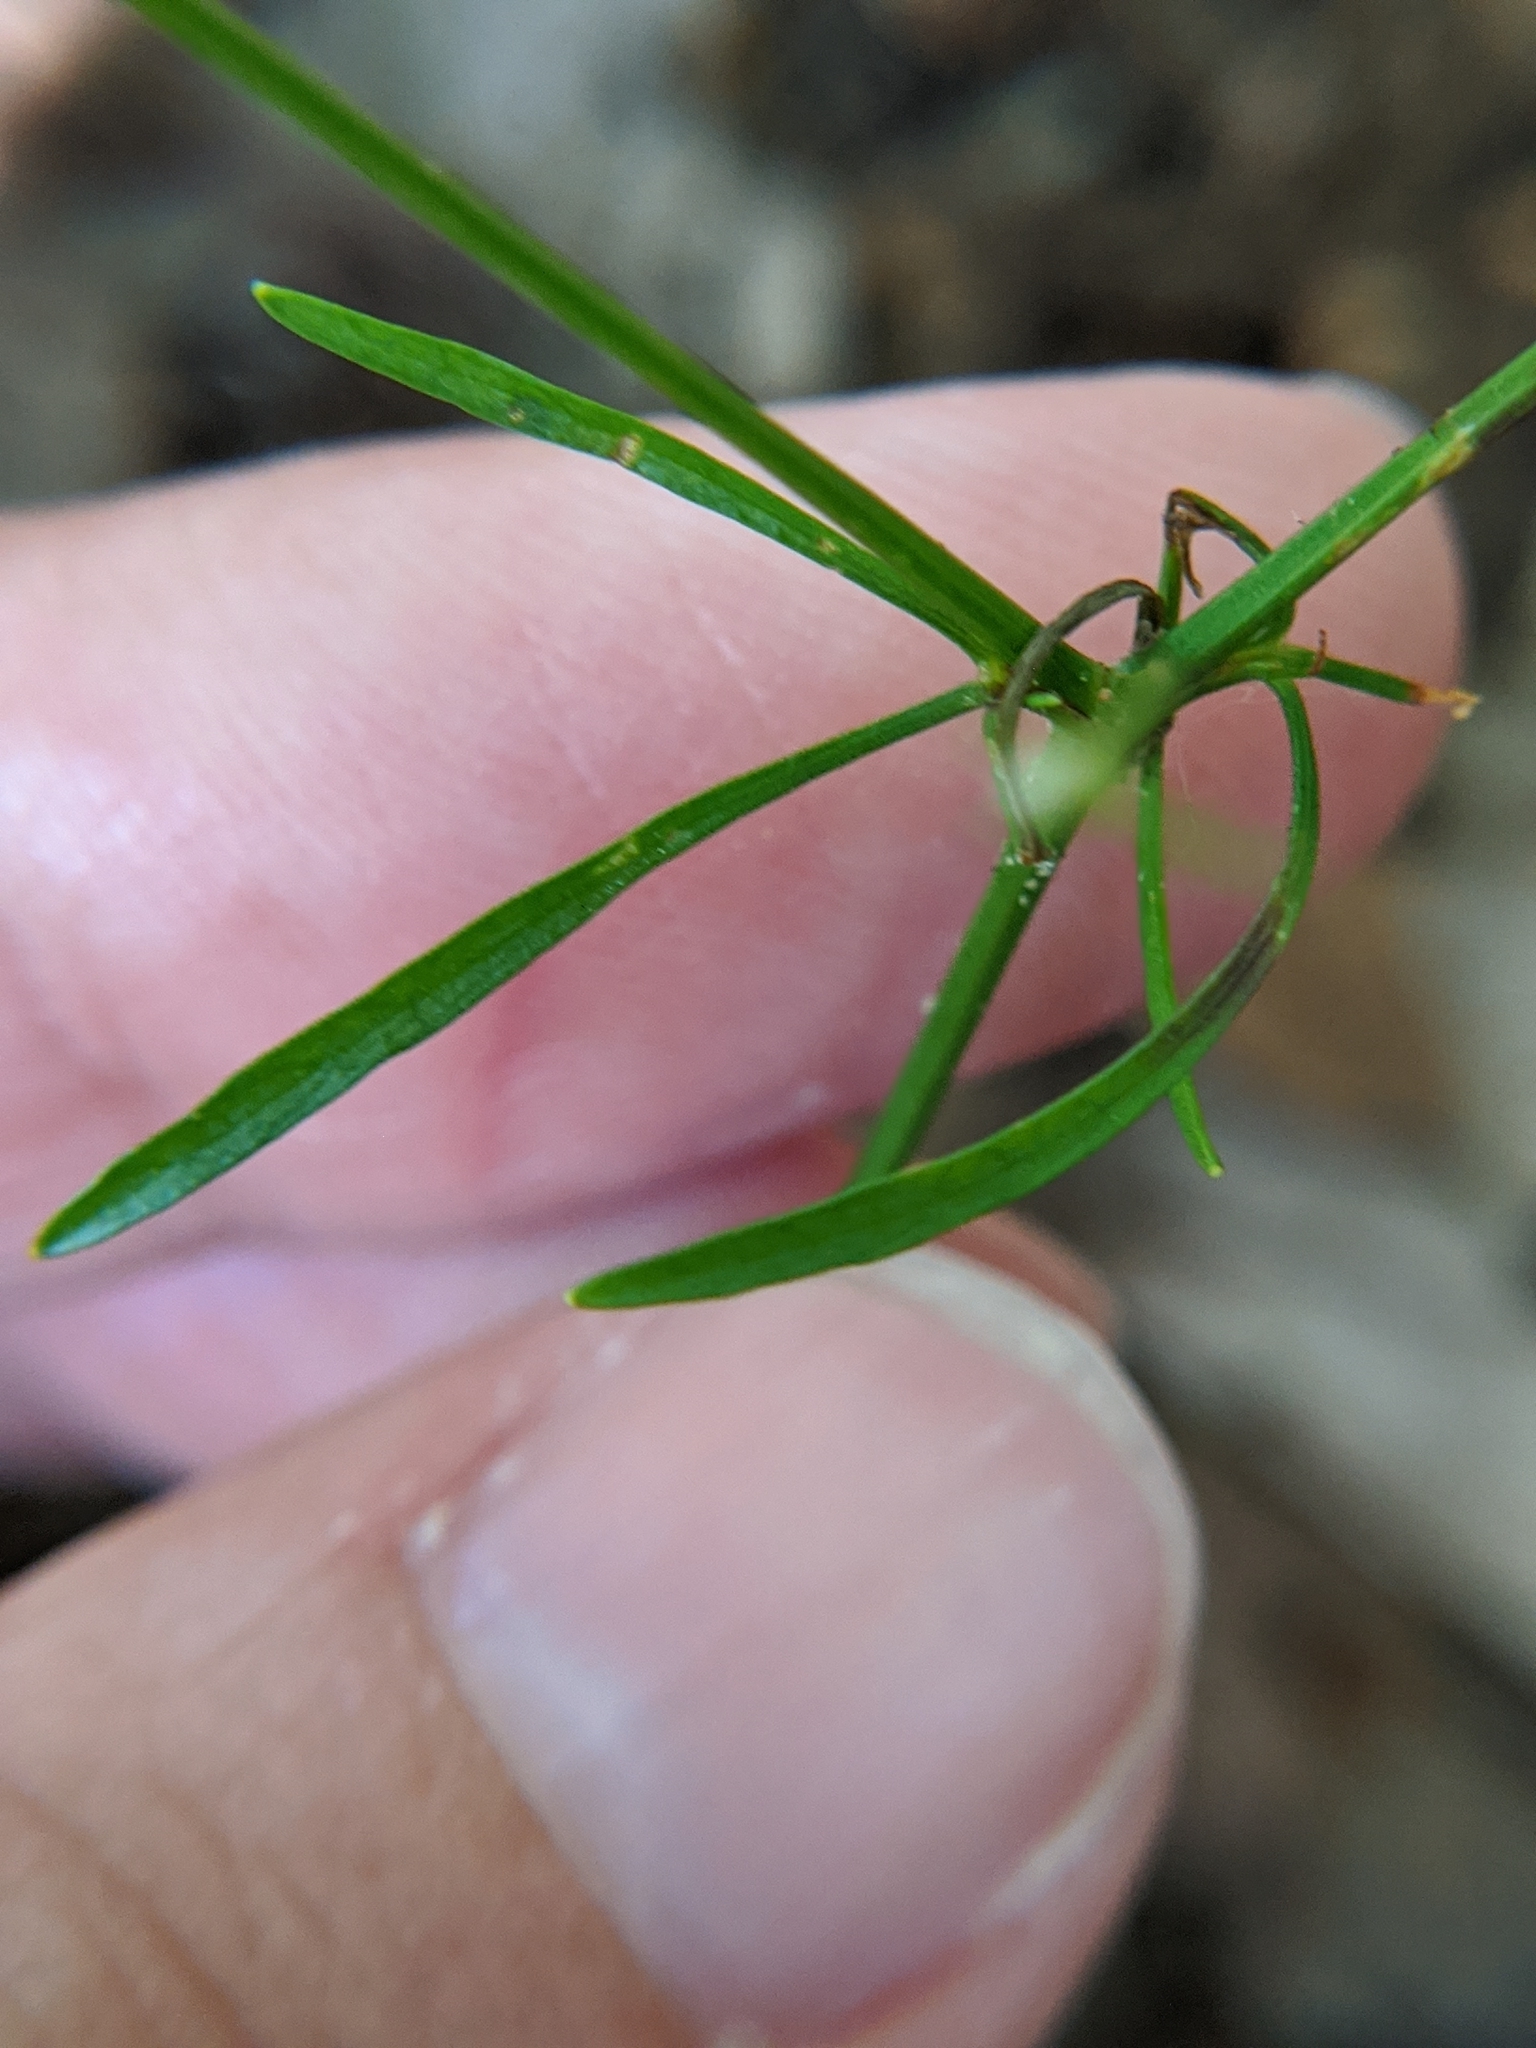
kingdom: Plantae
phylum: Tracheophyta
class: Magnoliopsida
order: Apiales
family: Apiaceae
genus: Eryngium
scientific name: Eryngium baldwinii
